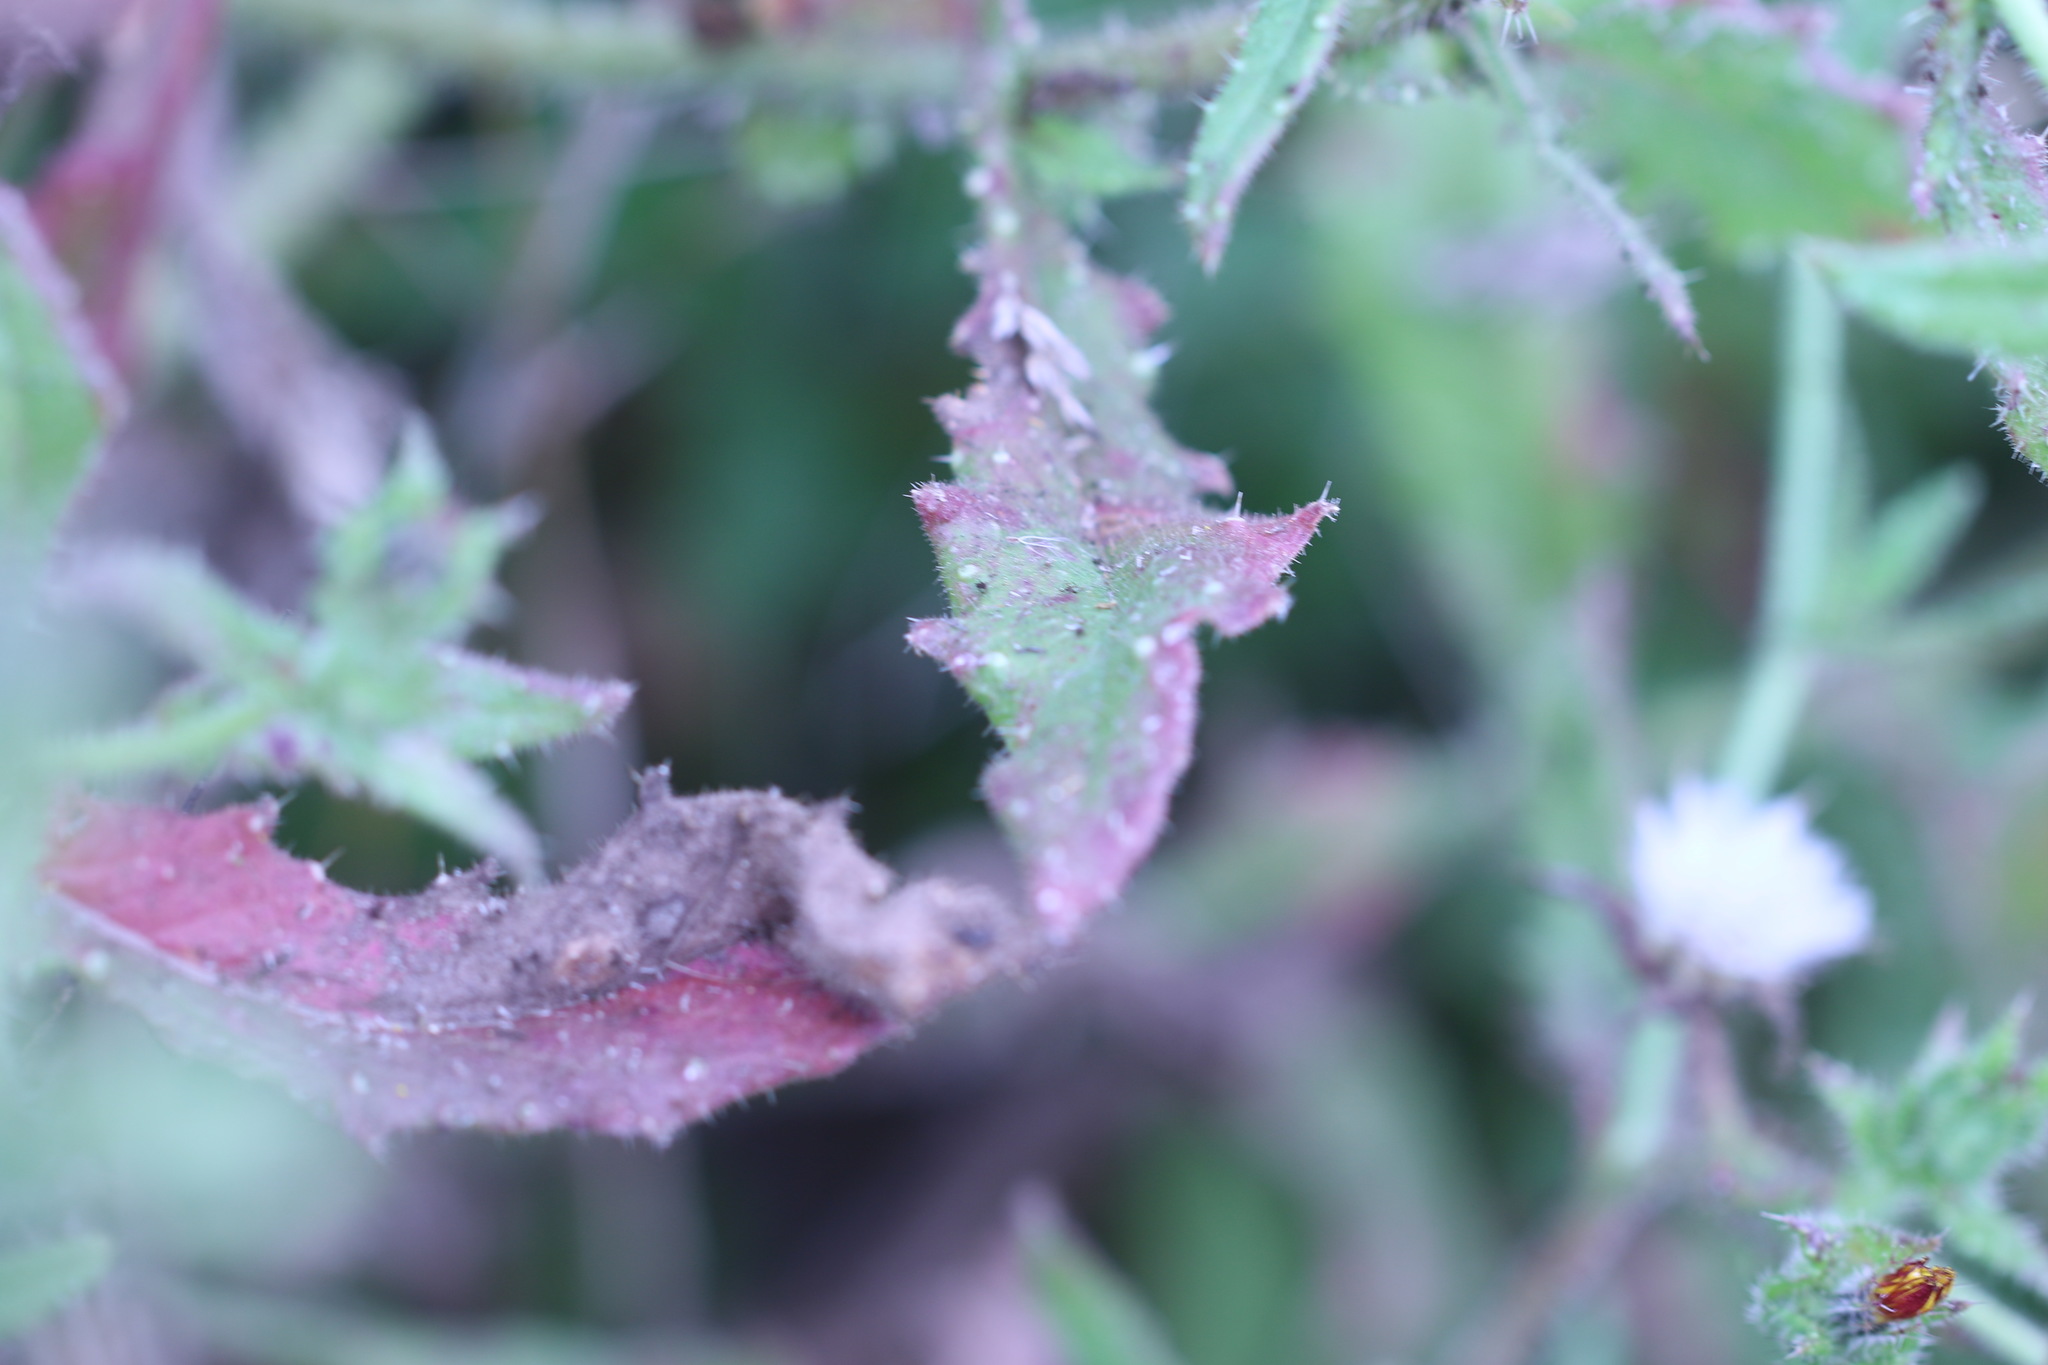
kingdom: Plantae
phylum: Tracheophyta
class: Magnoliopsida
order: Asterales
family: Asteraceae
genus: Helminthotheca
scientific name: Helminthotheca echioides
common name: Ox-tongue
